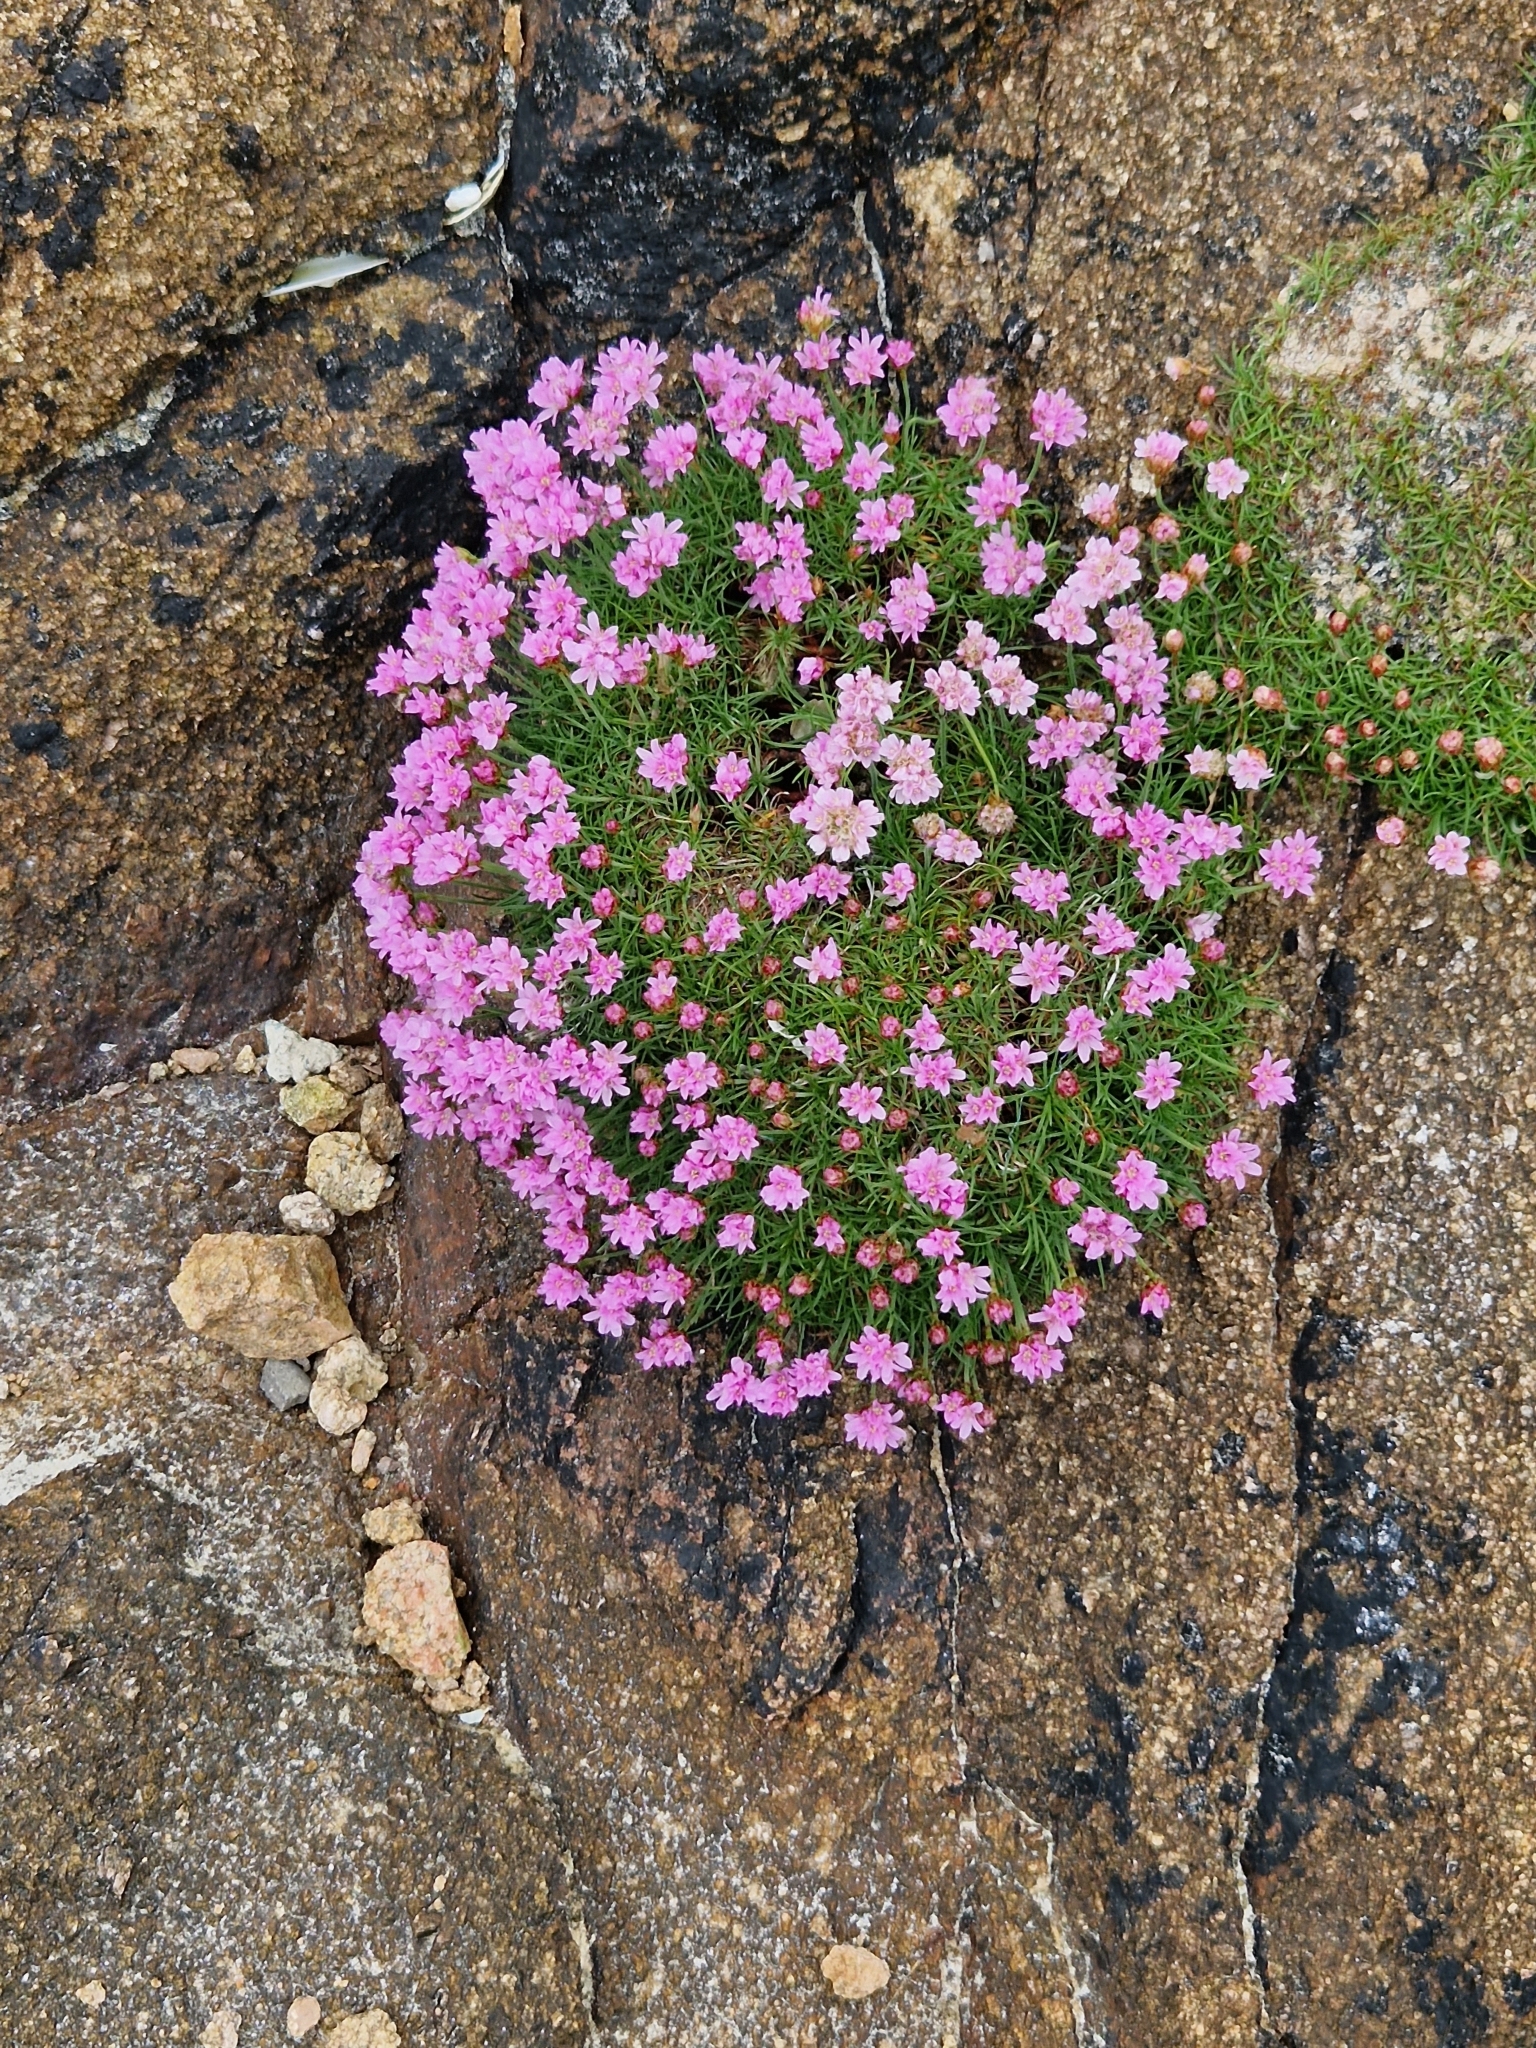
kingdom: Plantae
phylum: Tracheophyta
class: Magnoliopsida
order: Caryophyllales
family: Plumbaginaceae
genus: Armeria
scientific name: Armeria maritima
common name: Thrift
